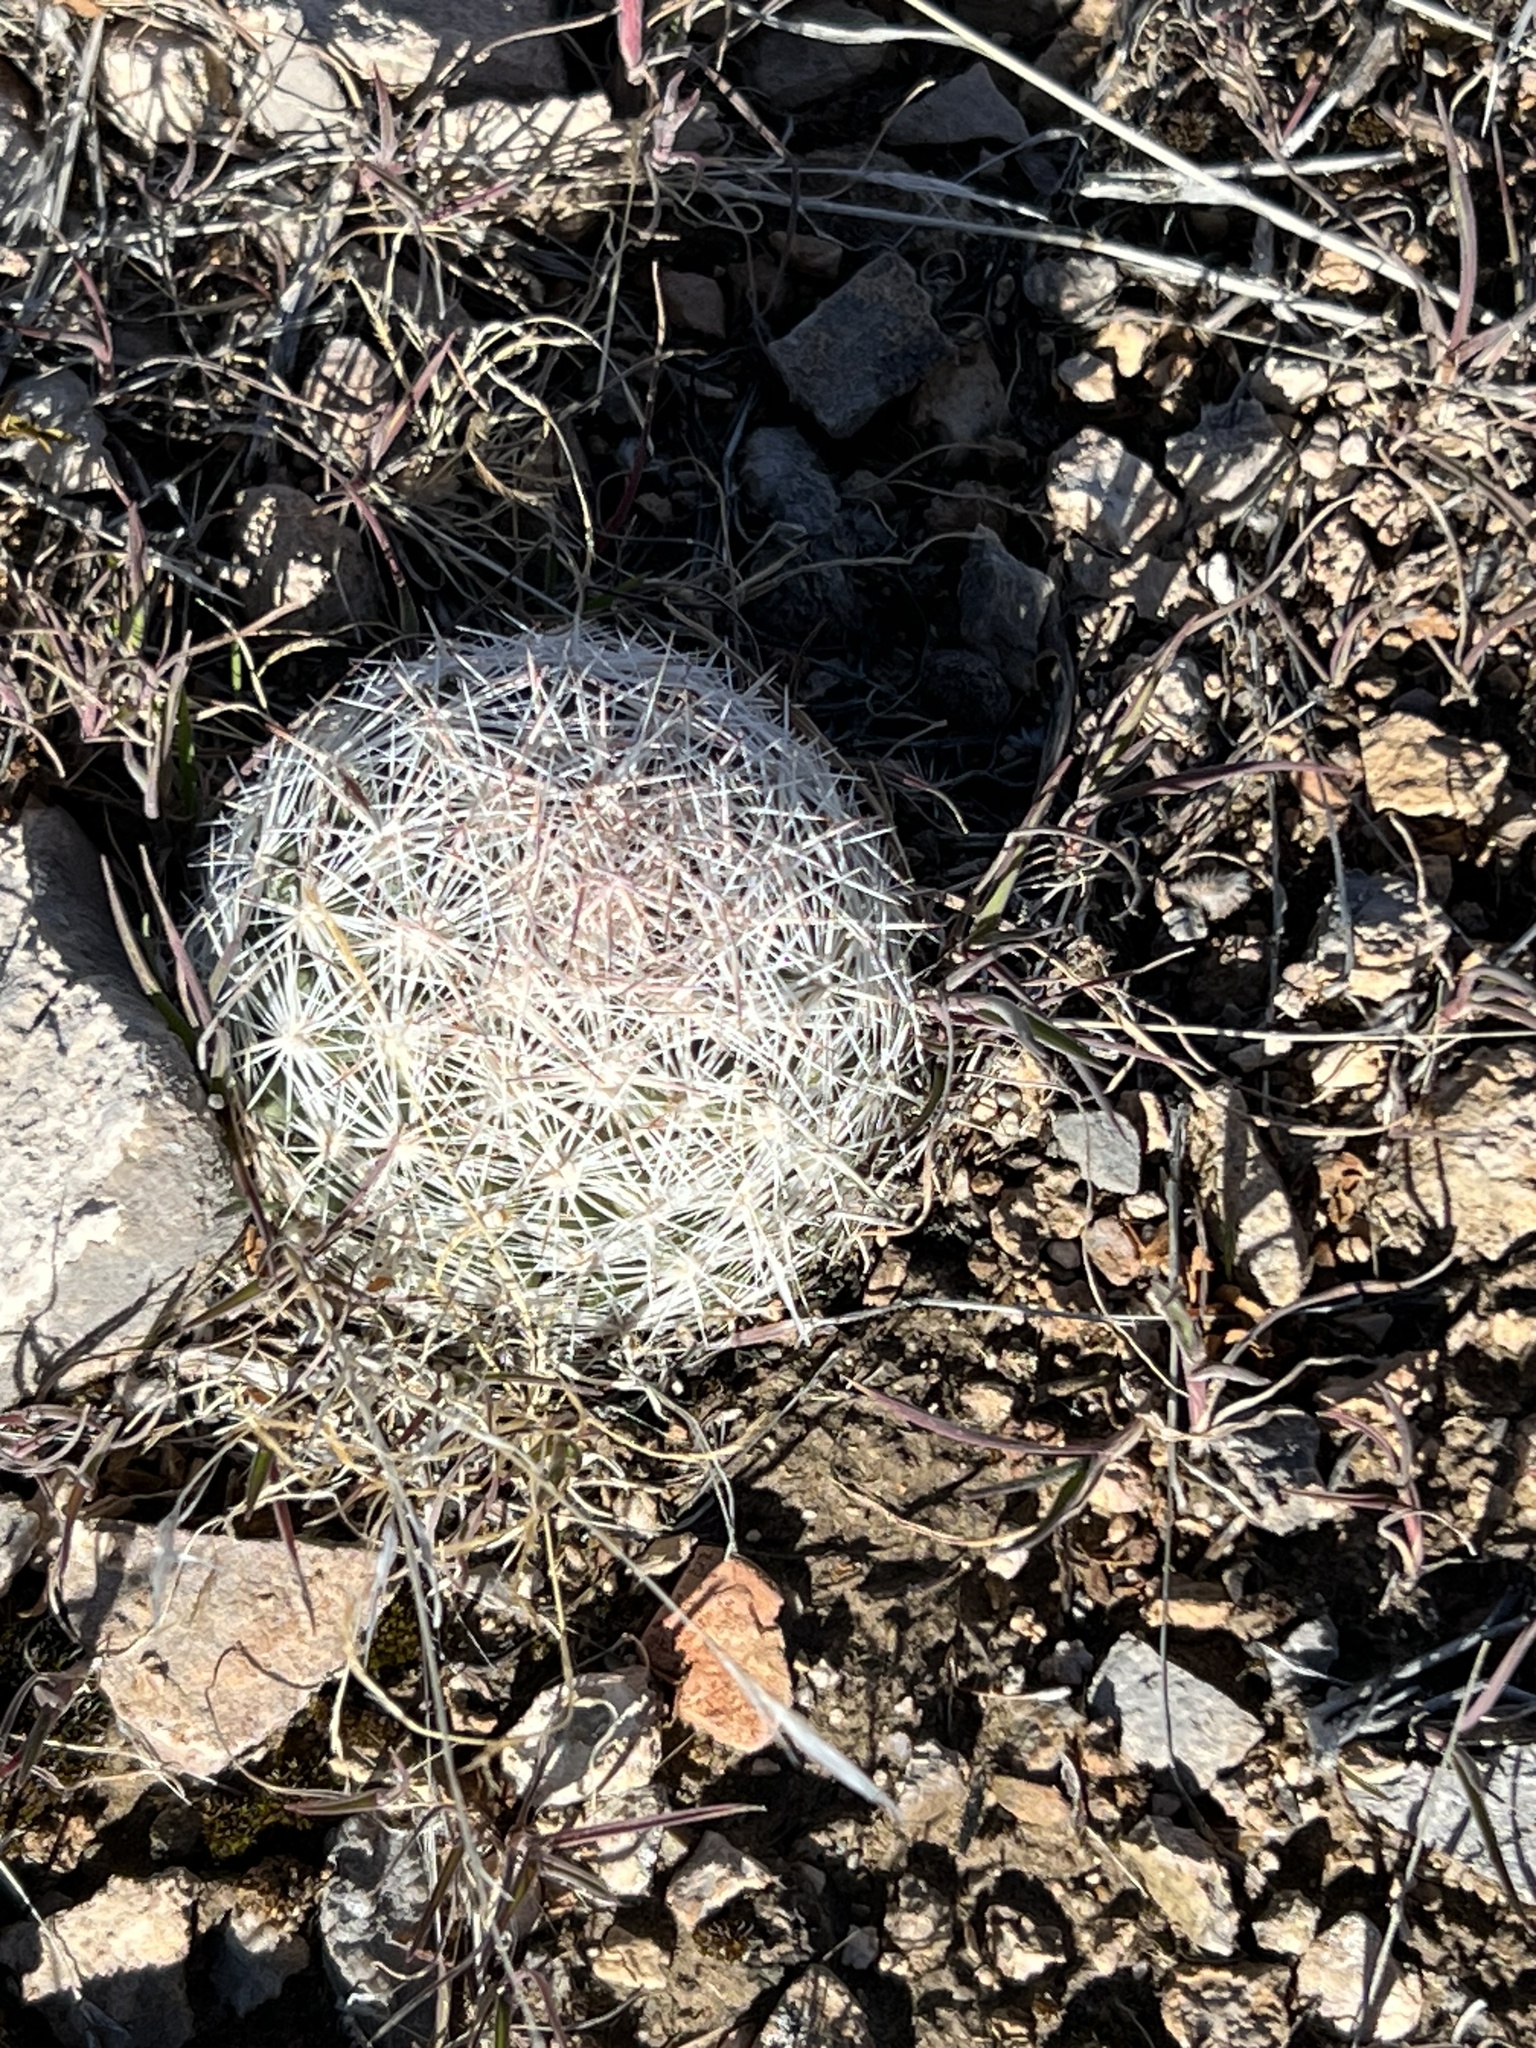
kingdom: Plantae
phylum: Tracheophyta
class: Magnoliopsida
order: Caryophyllales
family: Cactaceae
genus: Pelecyphora
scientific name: Pelecyphora dasyacantha
